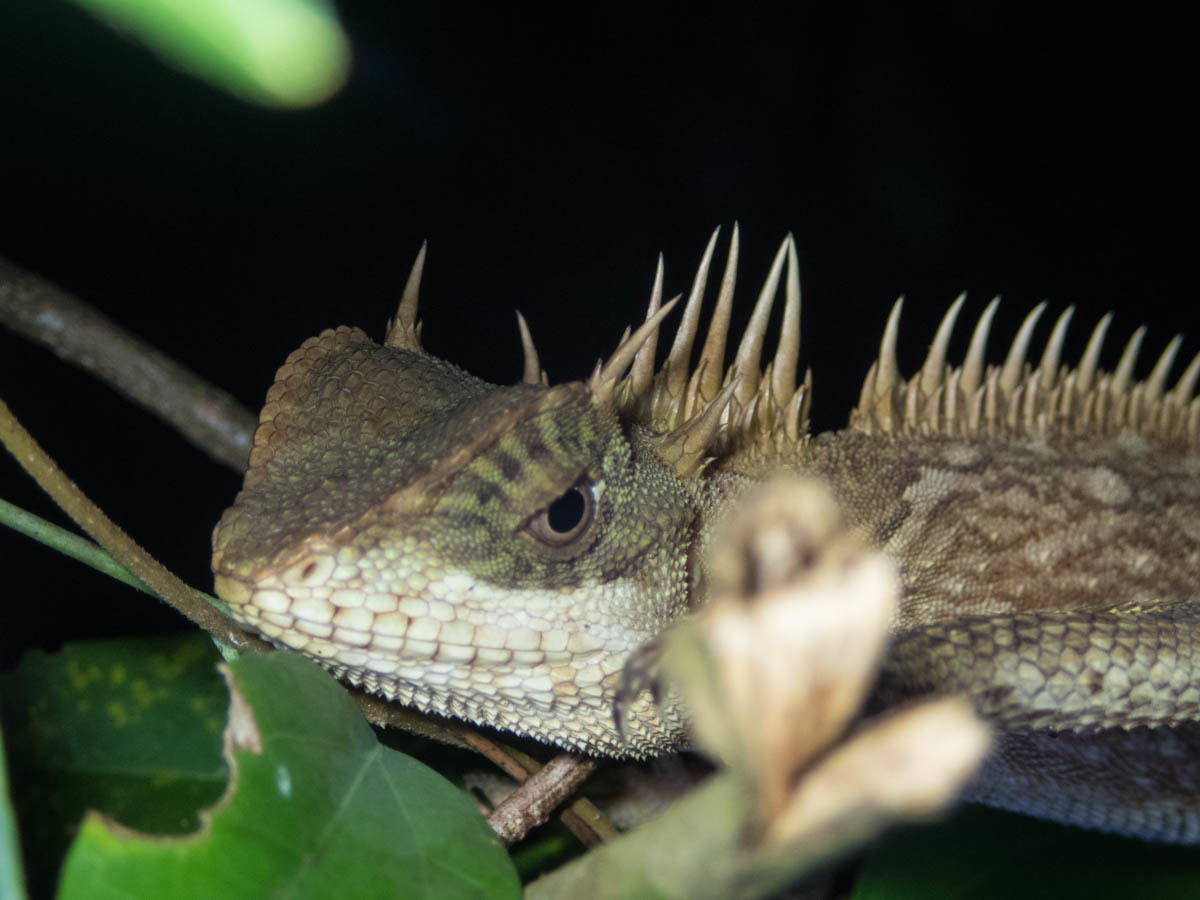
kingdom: Animalia
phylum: Chordata
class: Squamata
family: Agamidae
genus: Acanthosaura
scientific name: Acanthosaura cardamomensis
